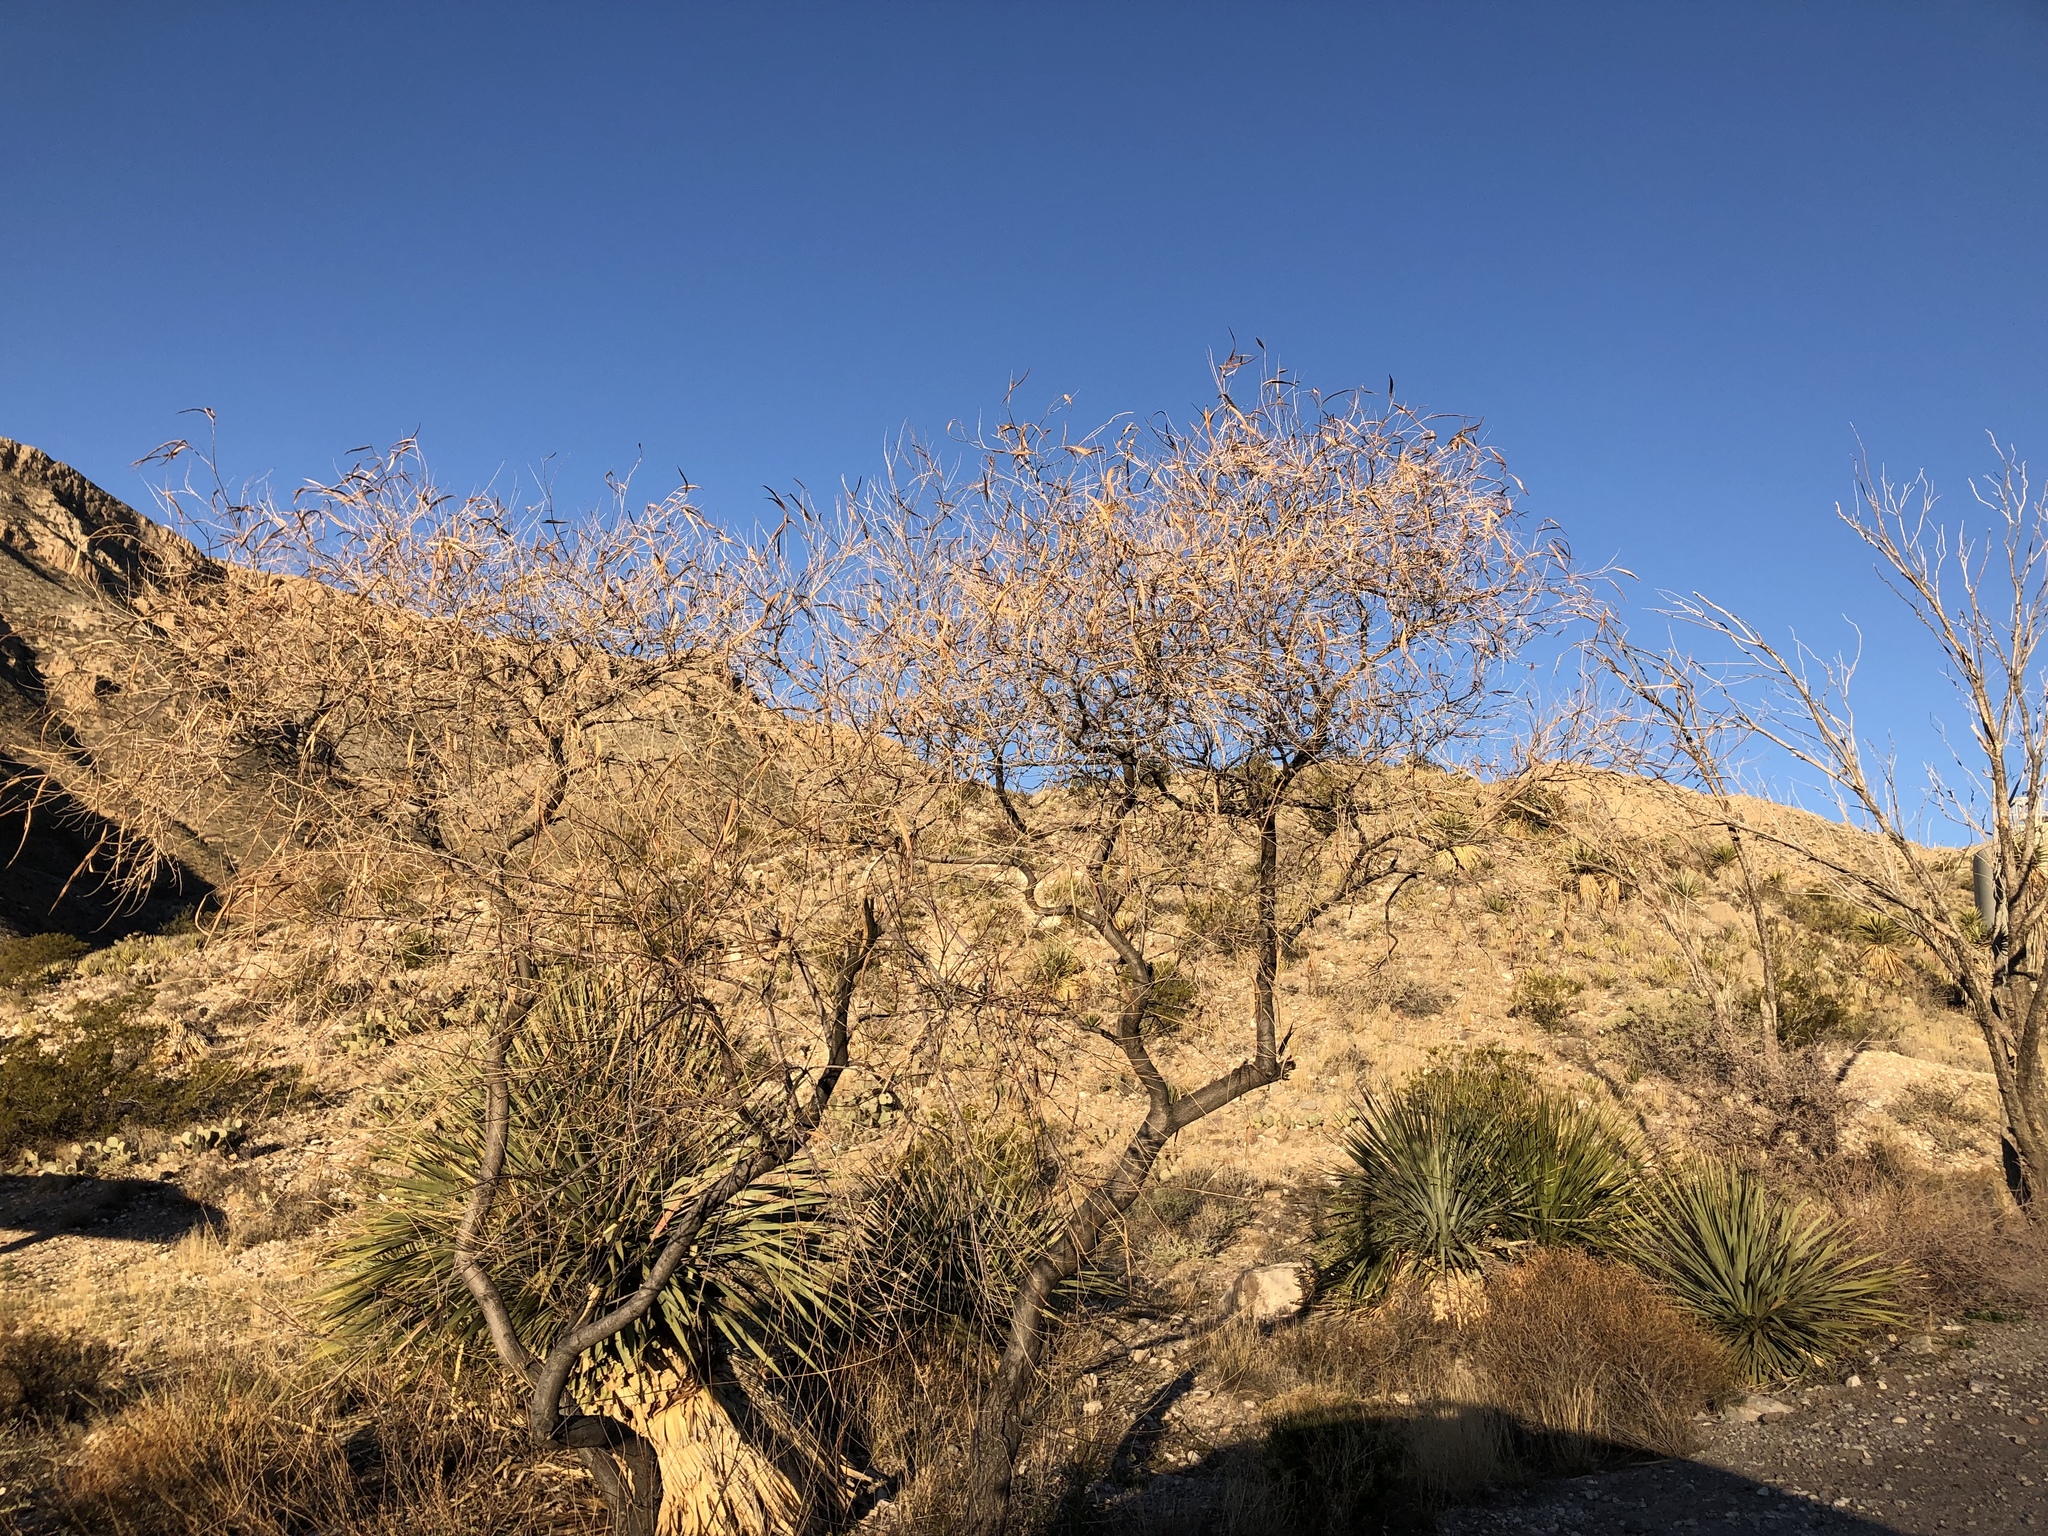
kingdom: Plantae
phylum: Tracheophyta
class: Magnoliopsida
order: Lamiales
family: Bignoniaceae
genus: Chilopsis
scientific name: Chilopsis linearis
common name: Desert-willow
